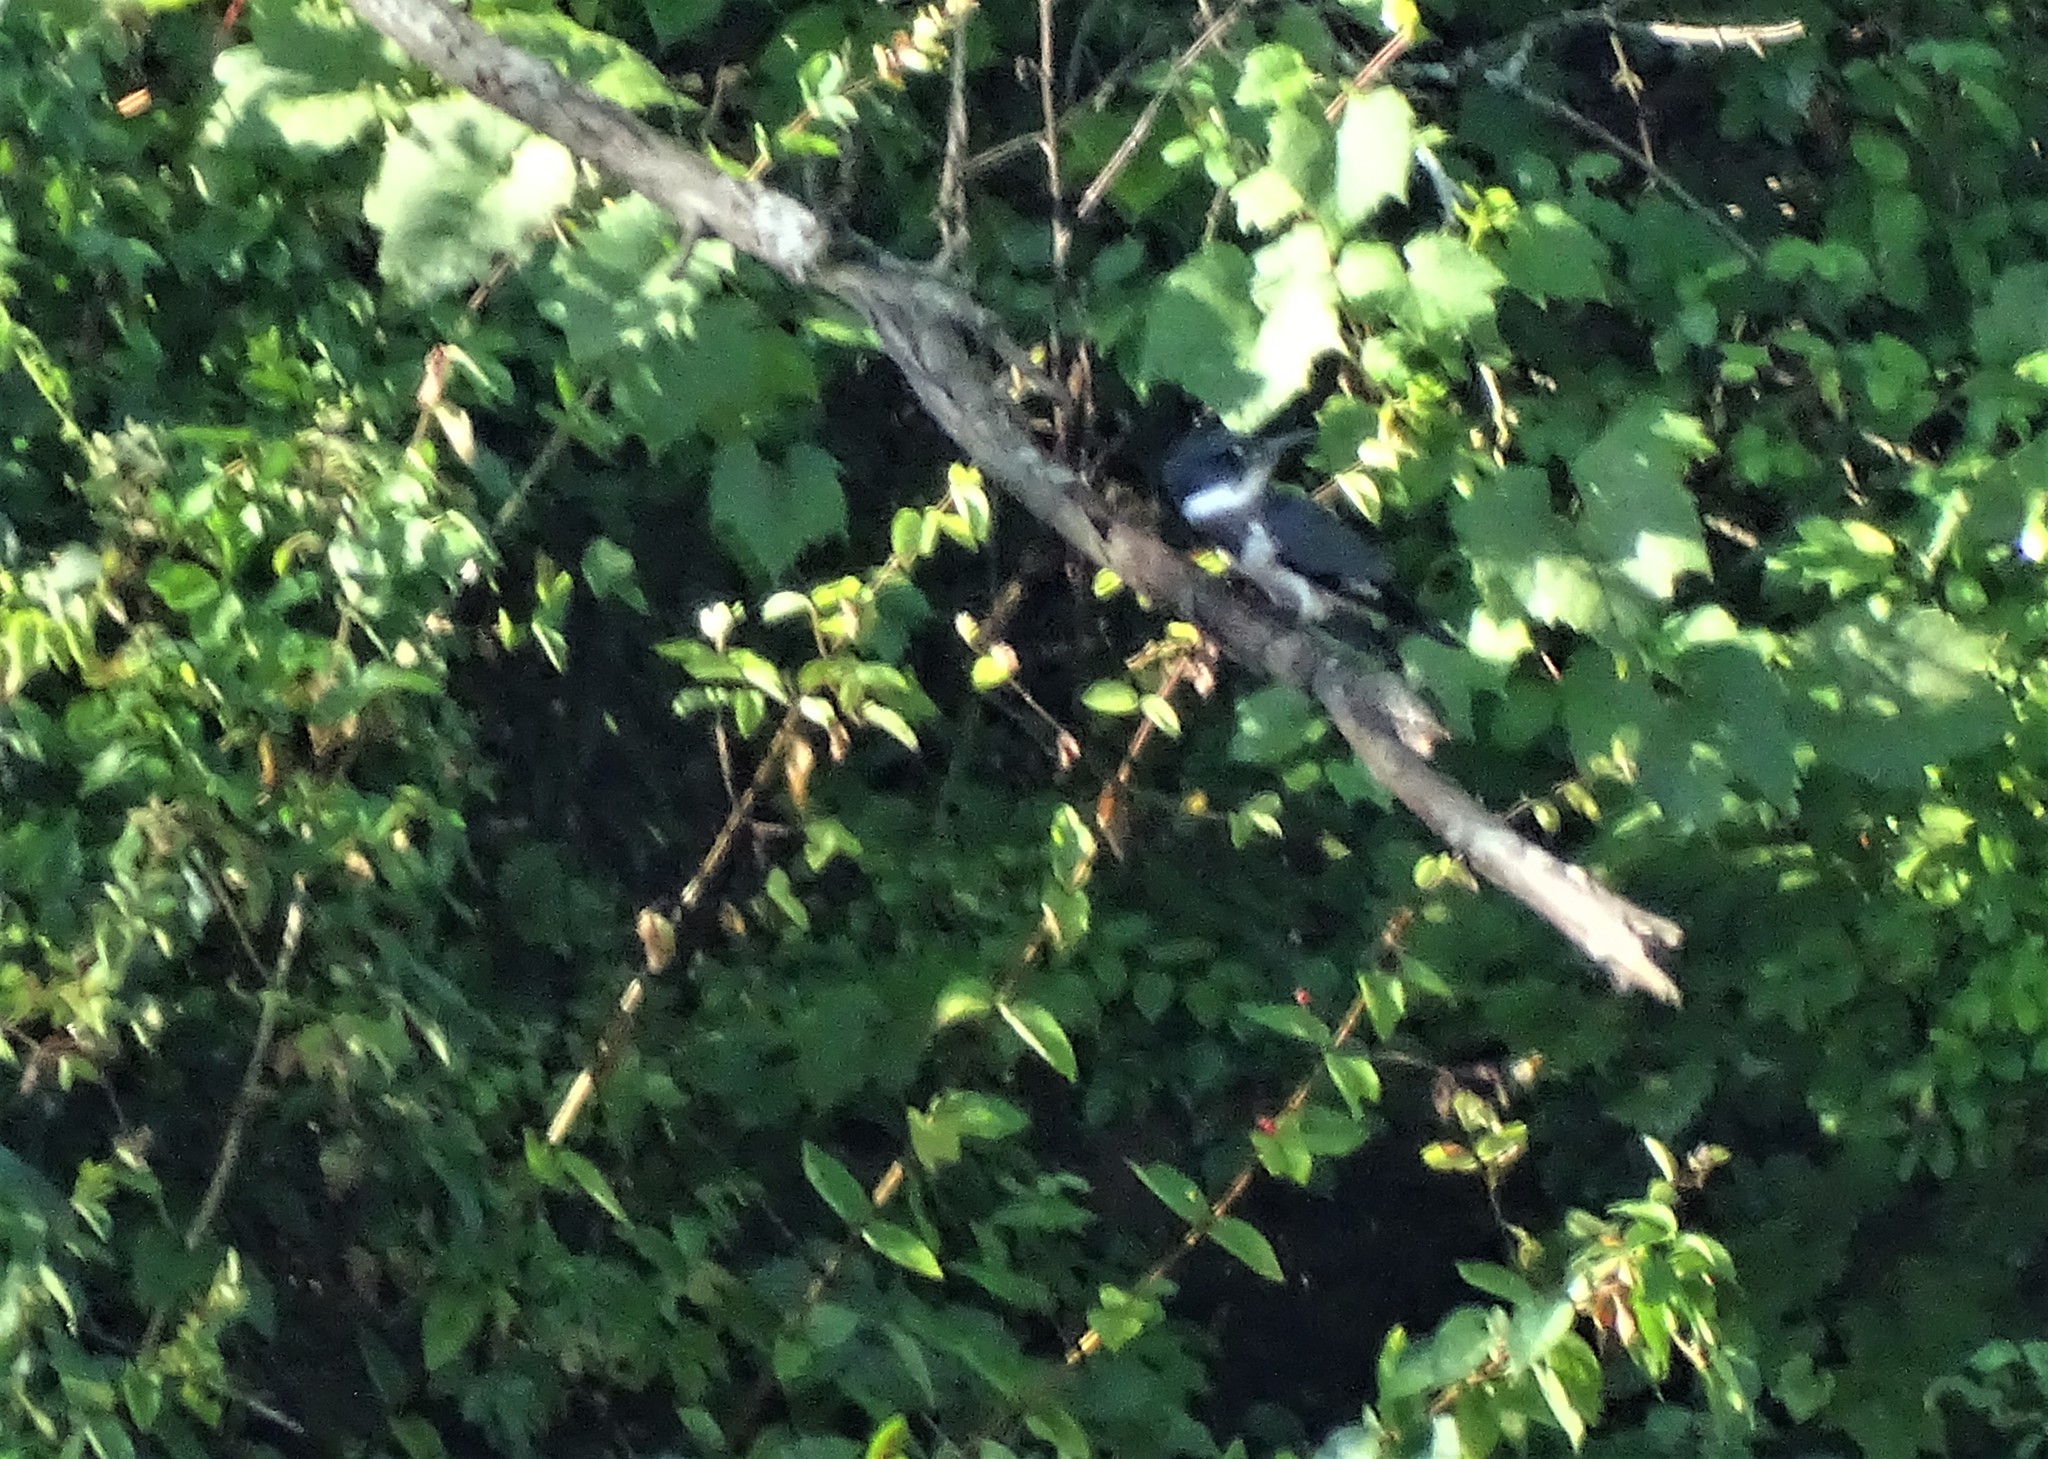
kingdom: Animalia
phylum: Chordata
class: Aves
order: Coraciiformes
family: Alcedinidae
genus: Megaceryle
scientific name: Megaceryle alcyon
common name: Belted kingfisher
